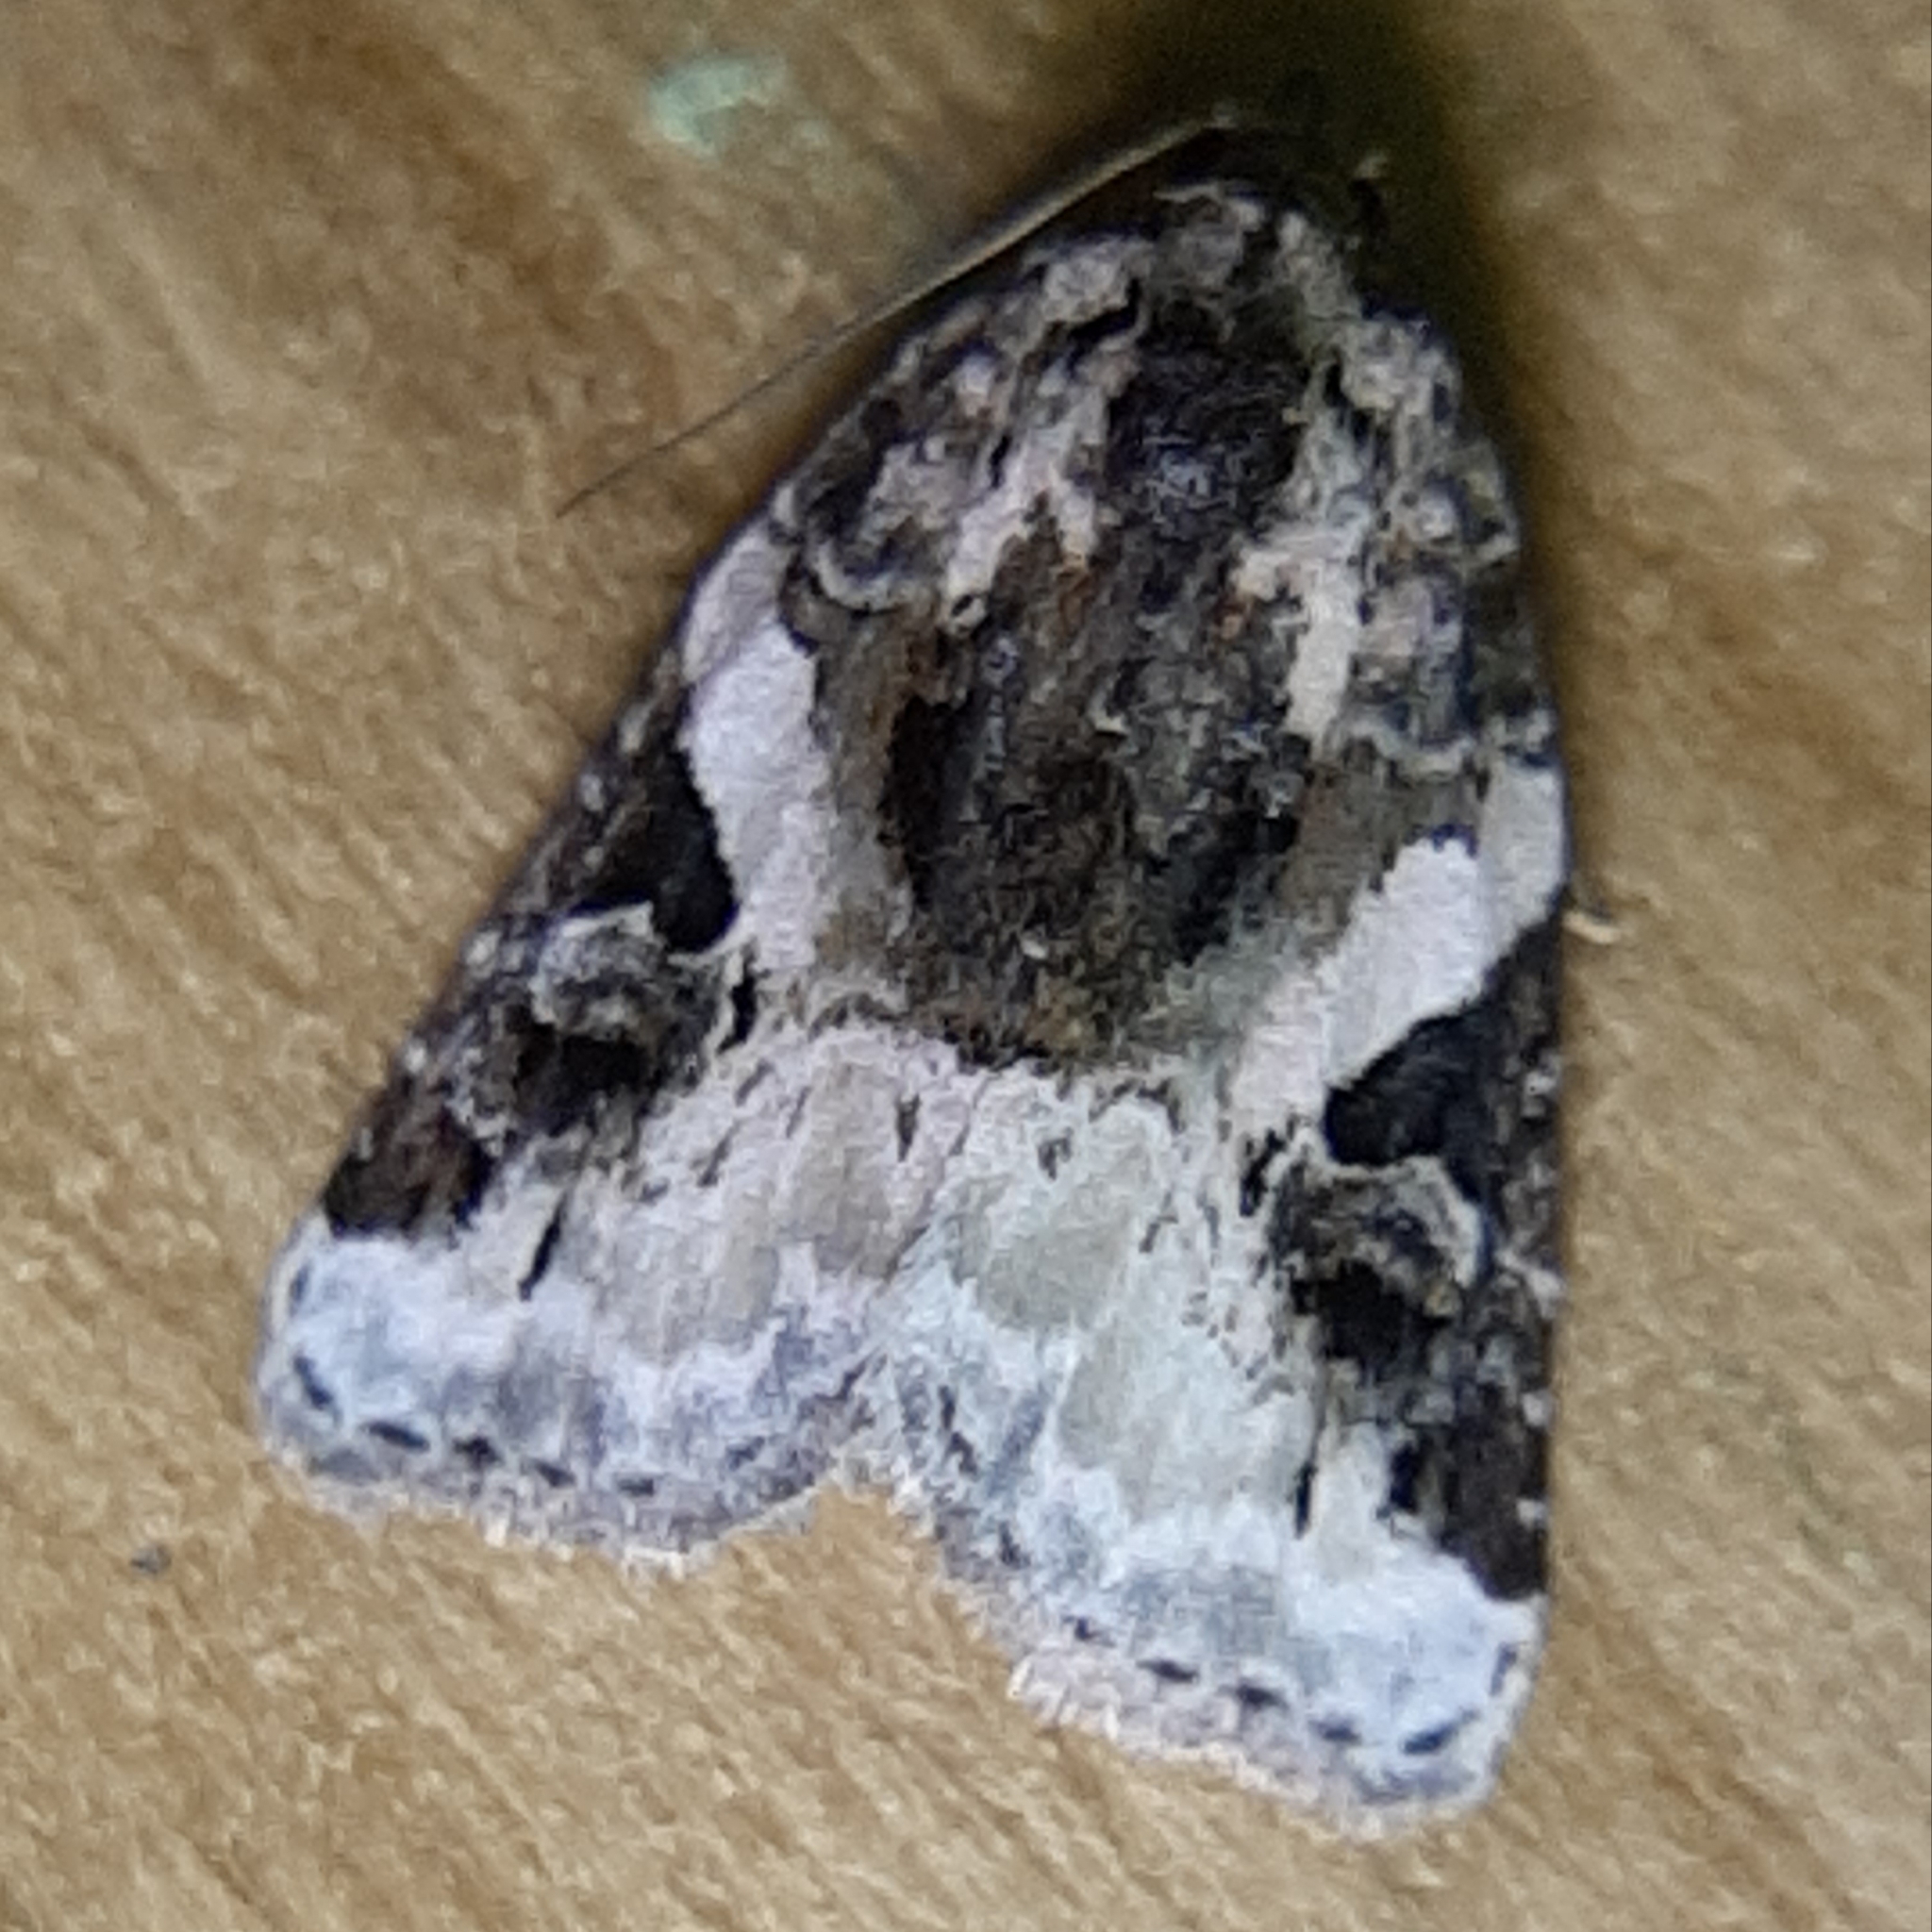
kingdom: Animalia
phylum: Arthropoda
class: Insecta
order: Lepidoptera
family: Noctuidae
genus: Pseudeustrotia
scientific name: Pseudeustrotia carneola
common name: Pink-barred lithacodia moth
